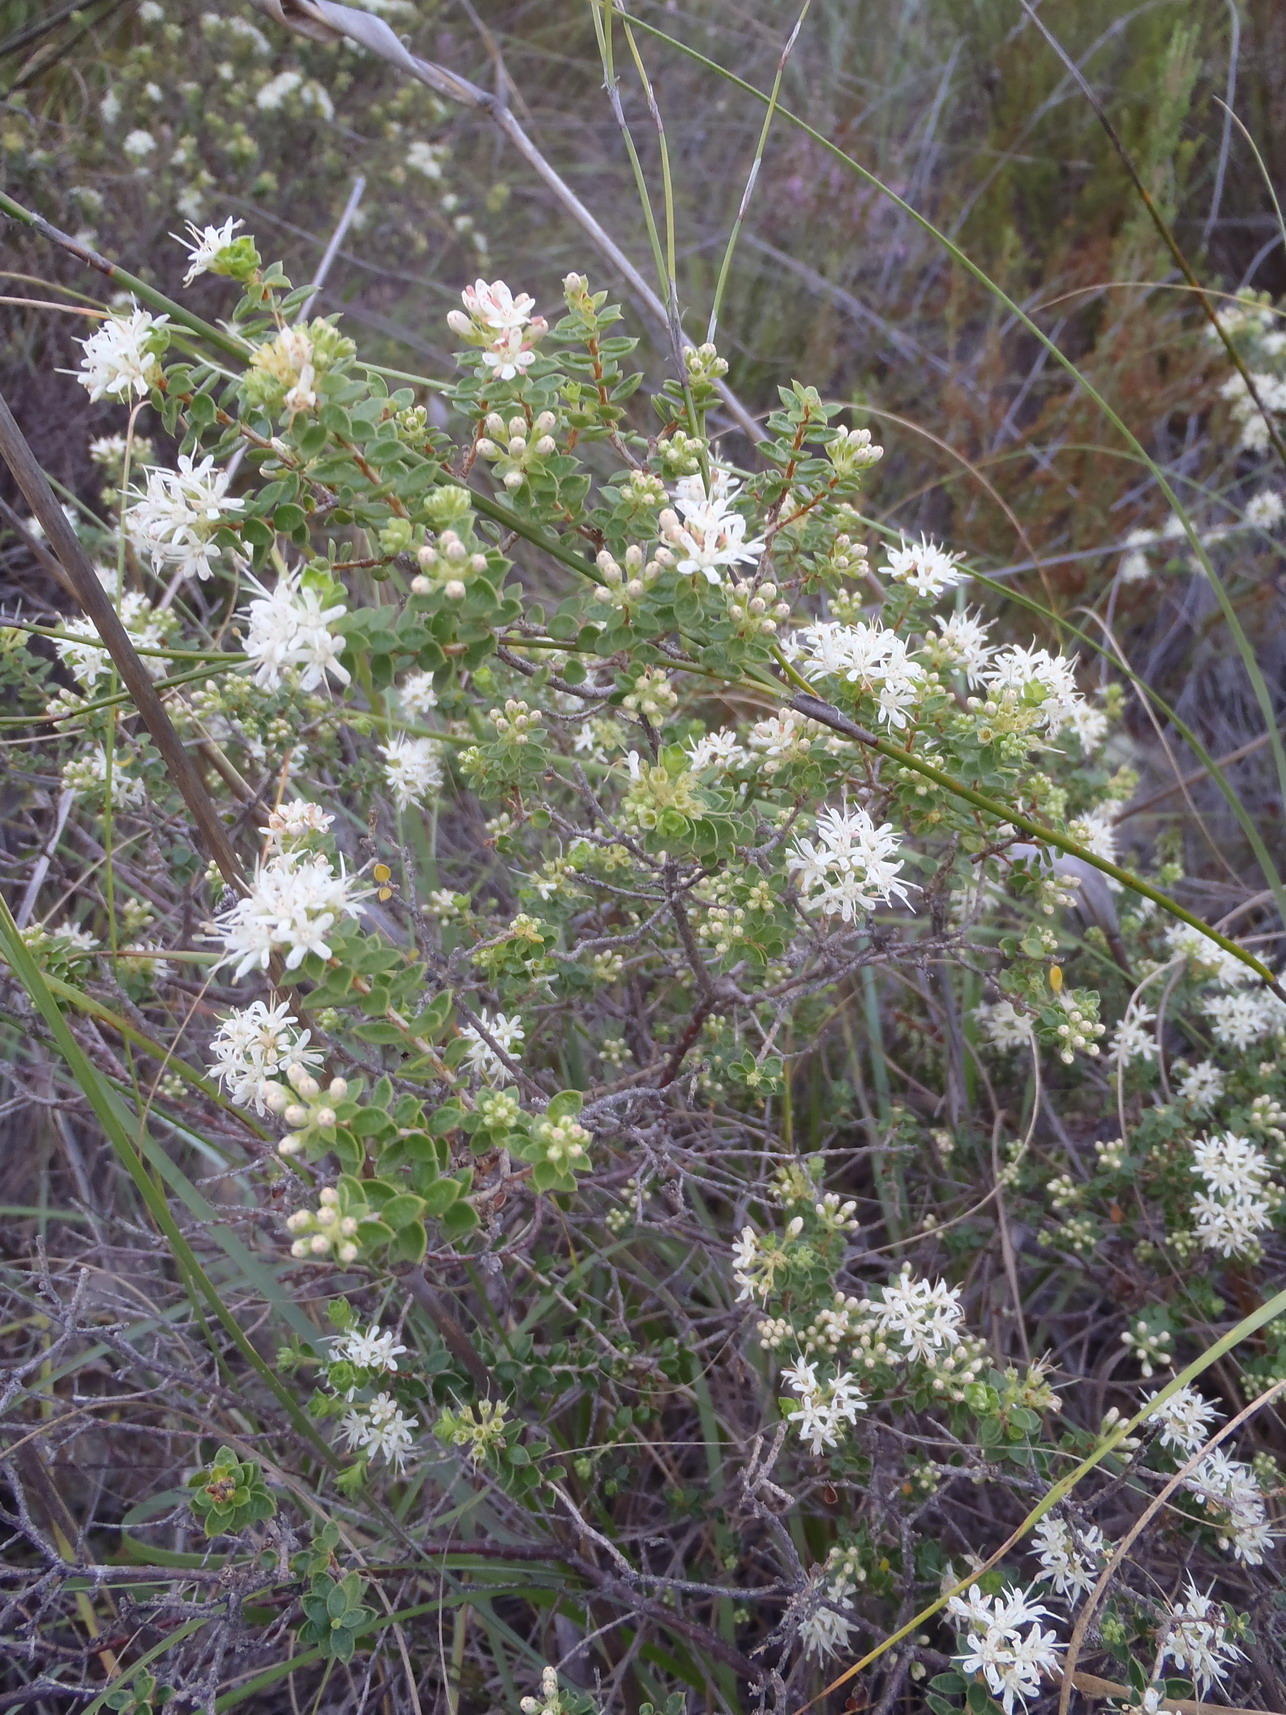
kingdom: Plantae
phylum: Tracheophyta
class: Magnoliopsida
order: Sapindales
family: Rutaceae
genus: Agathosma
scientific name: Agathosma recurvifolia
